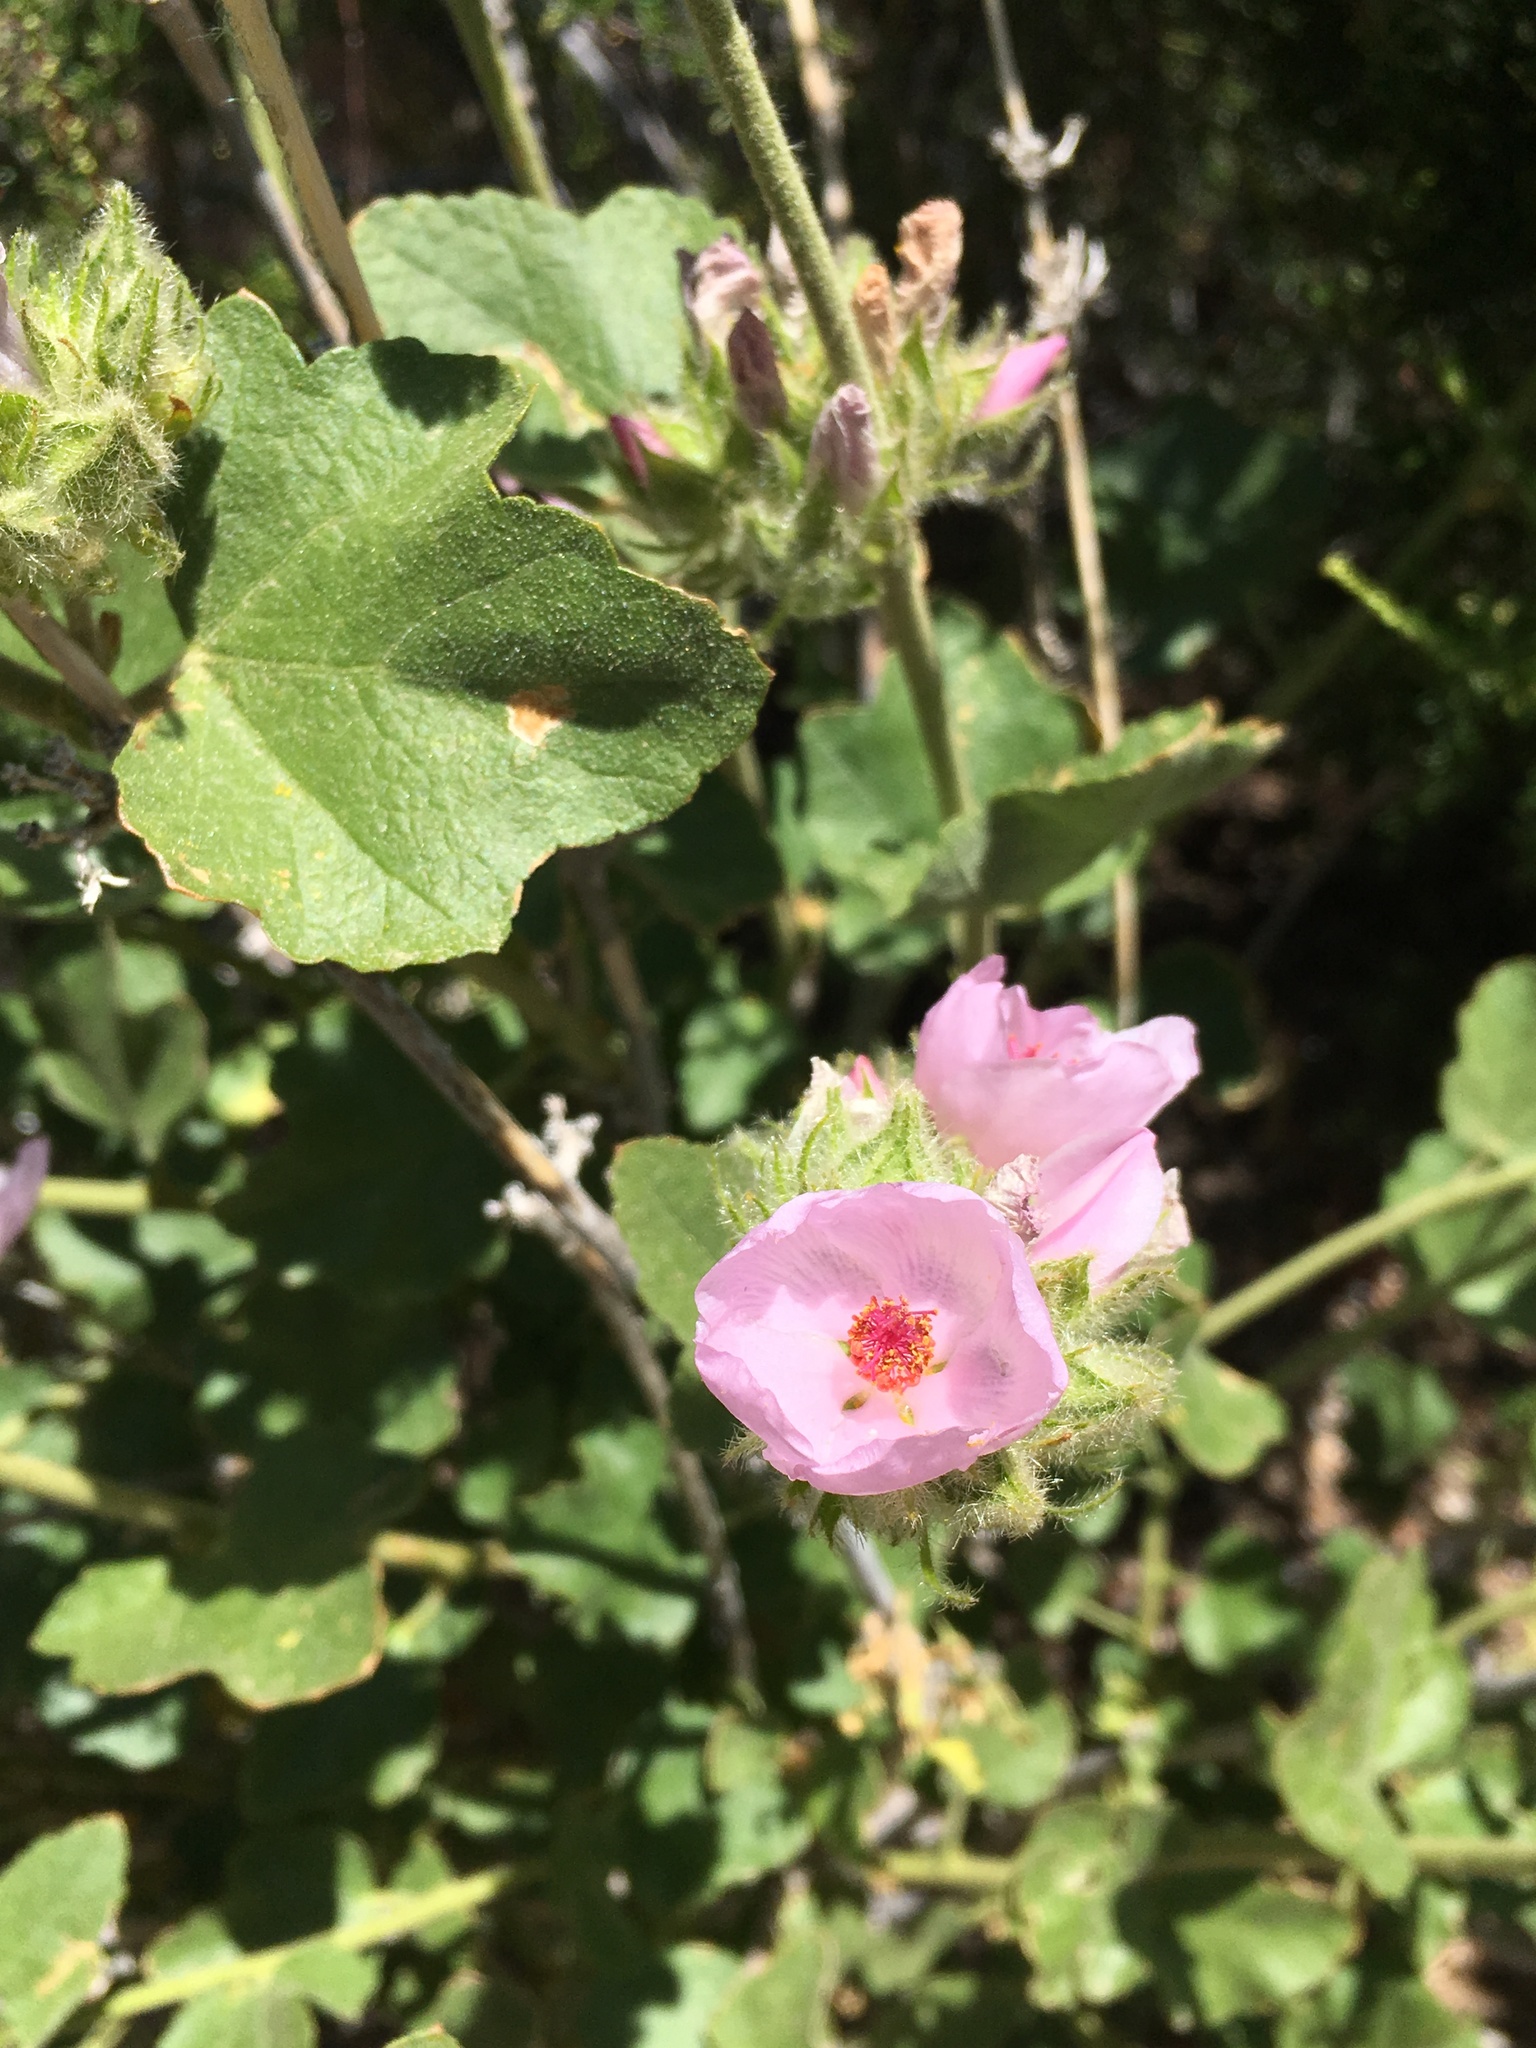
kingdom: Plantae
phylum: Tracheophyta
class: Magnoliopsida
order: Malvales
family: Malvaceae
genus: Malacothamnus
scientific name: Malacothamnus densiflorus
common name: Yellow-stem bush-mallow
